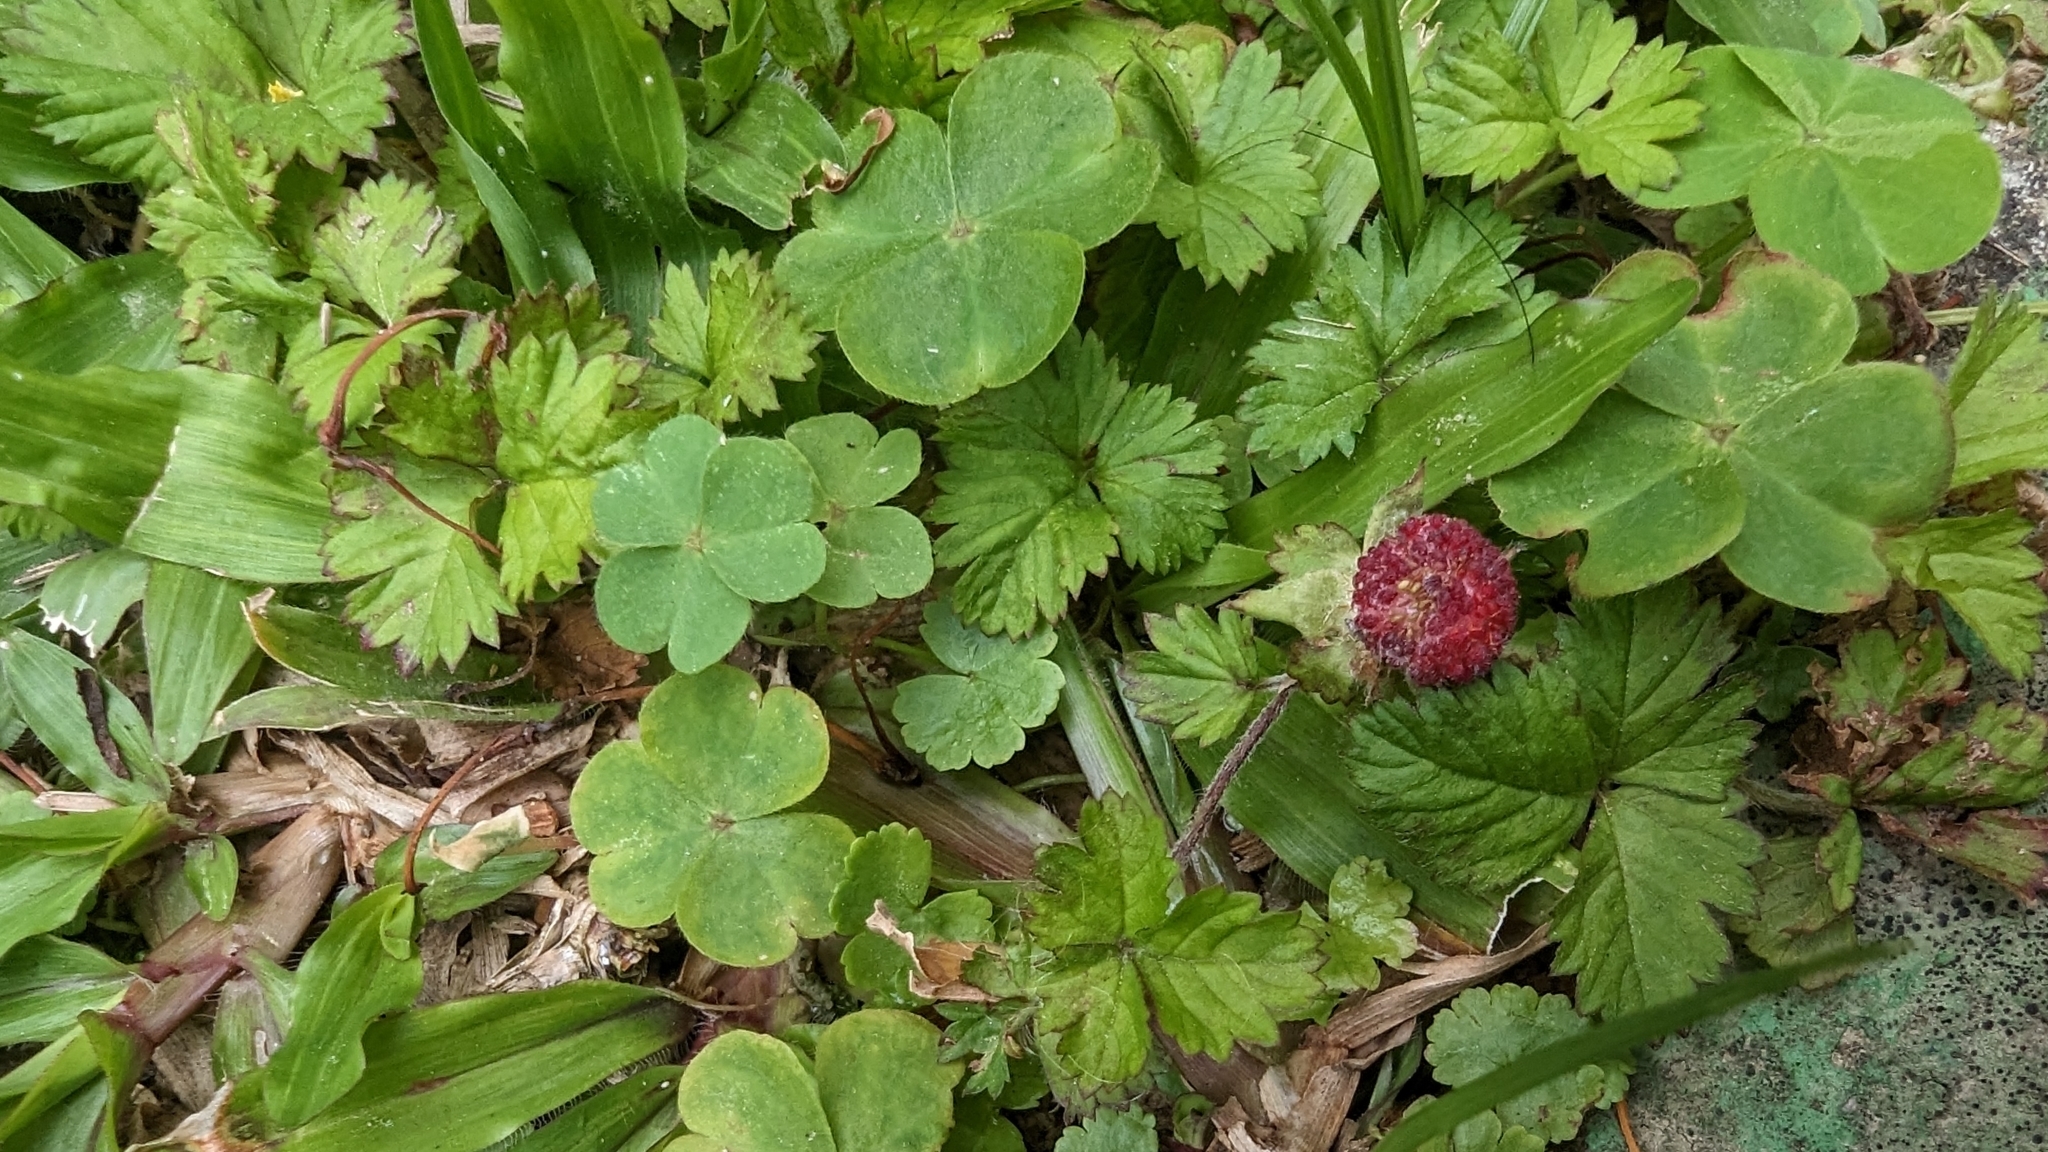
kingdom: Plantae
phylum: Tracheophyta
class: Magnoliopsida
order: Rosales
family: Rosaceae
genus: Potentilla
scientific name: Potentilla wallichiana
